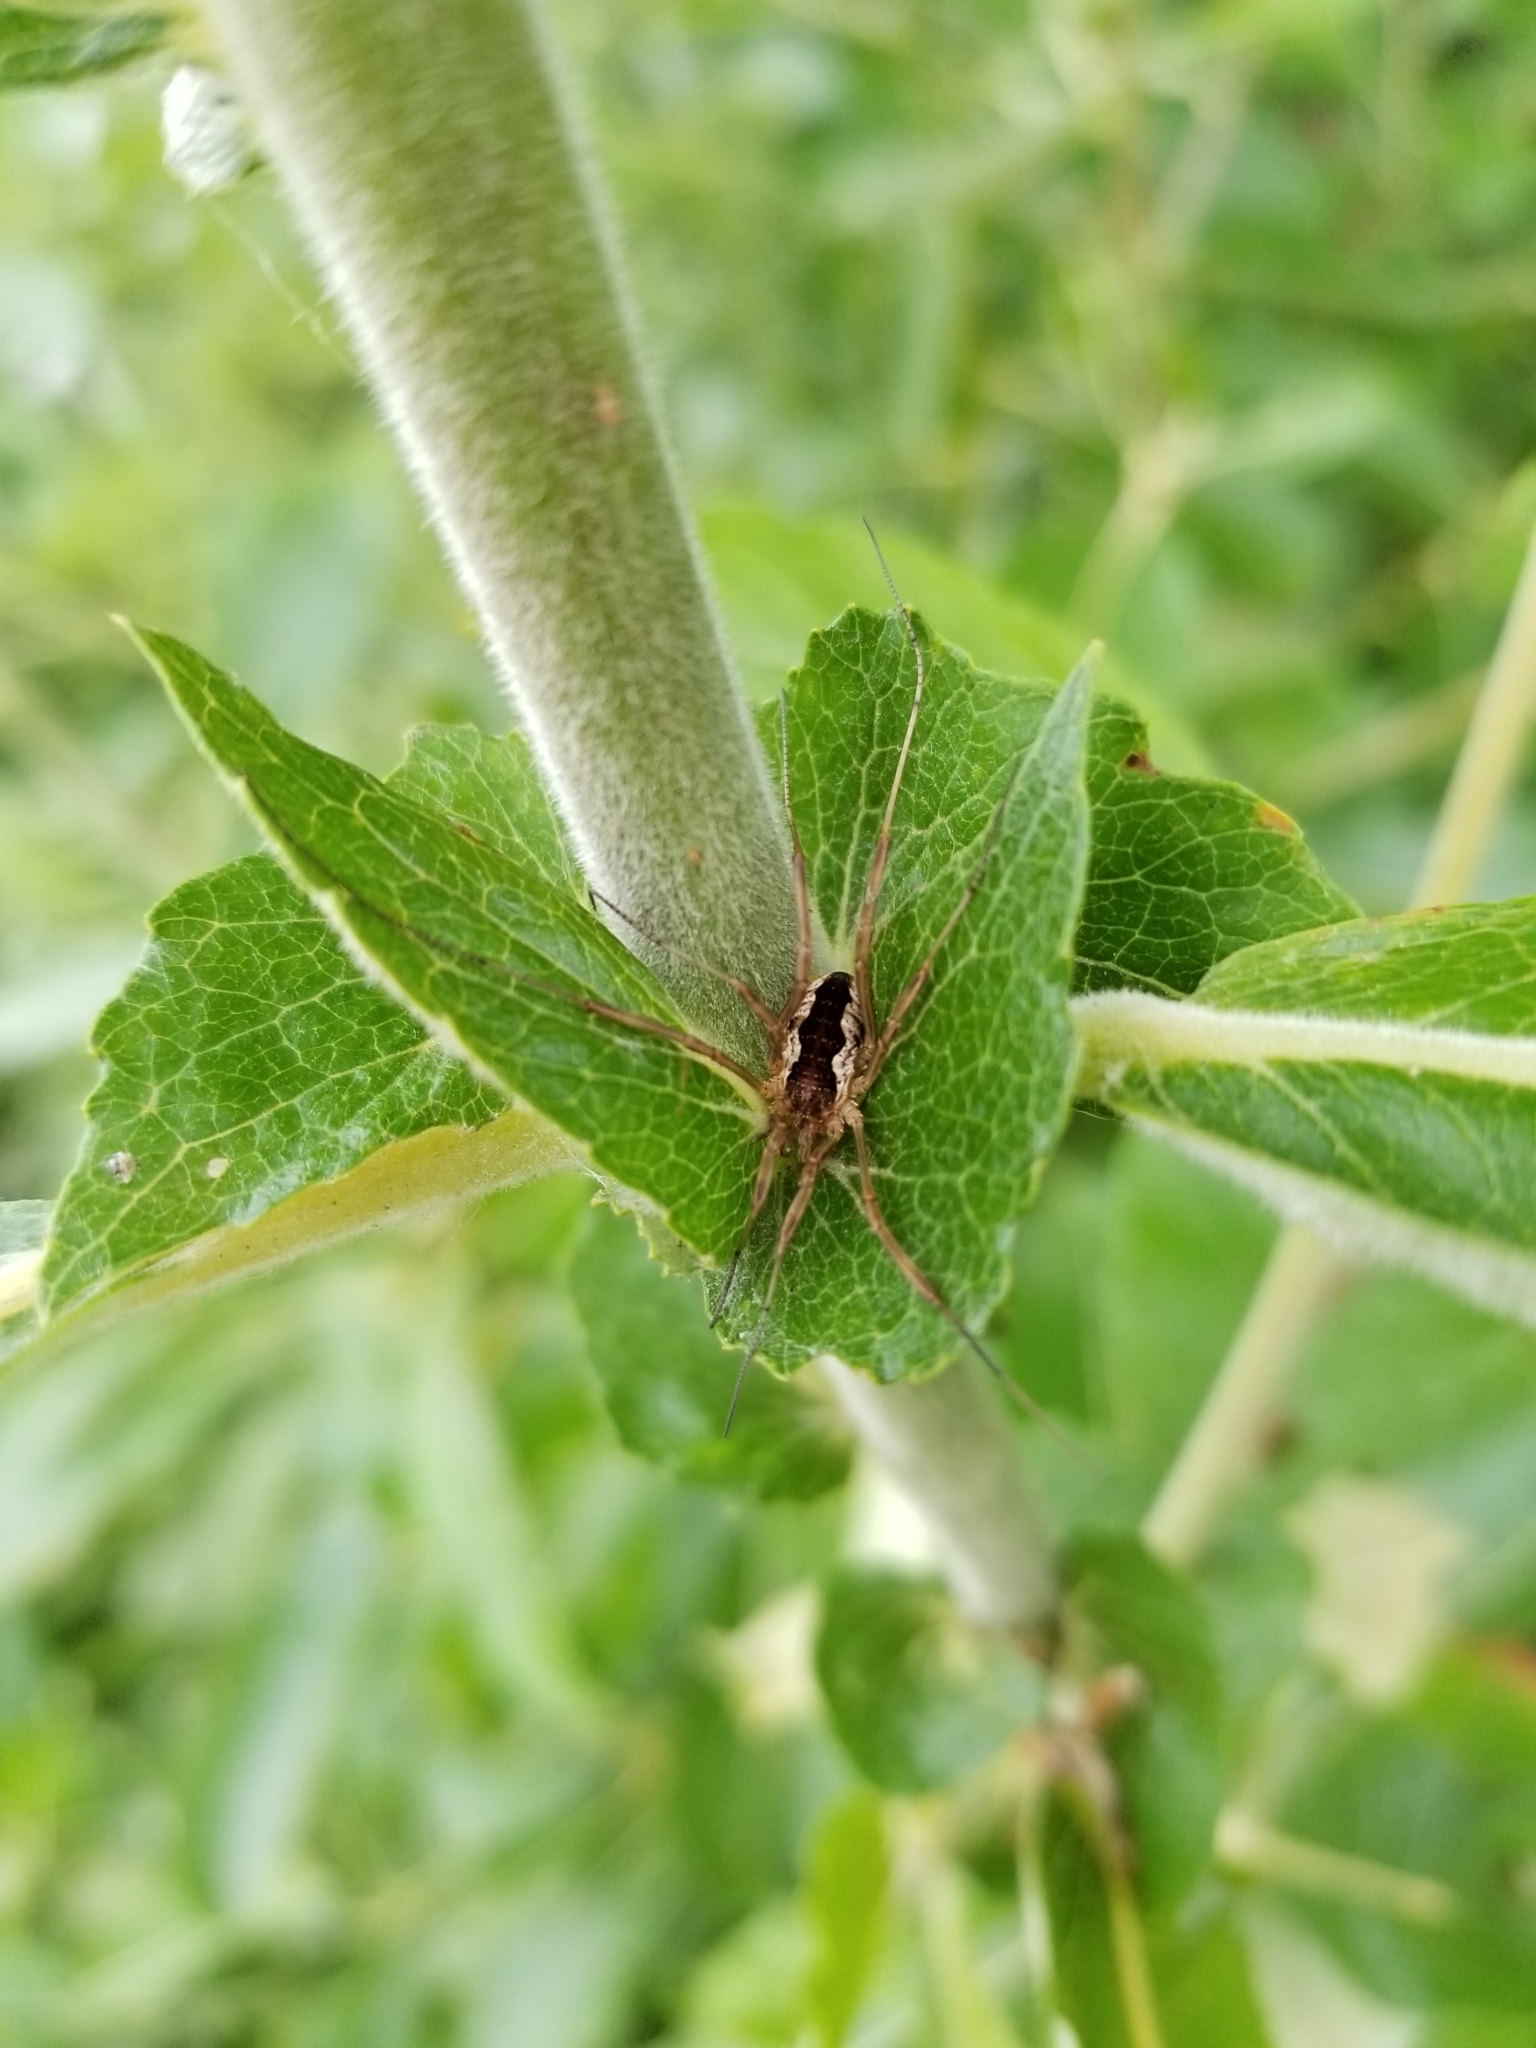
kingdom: Animalia
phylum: Arthropoda
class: Arachnida
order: Opiliones
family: Phalangiidae
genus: Mitopus
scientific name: Mitopus morio
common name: Saddleback harvestman
